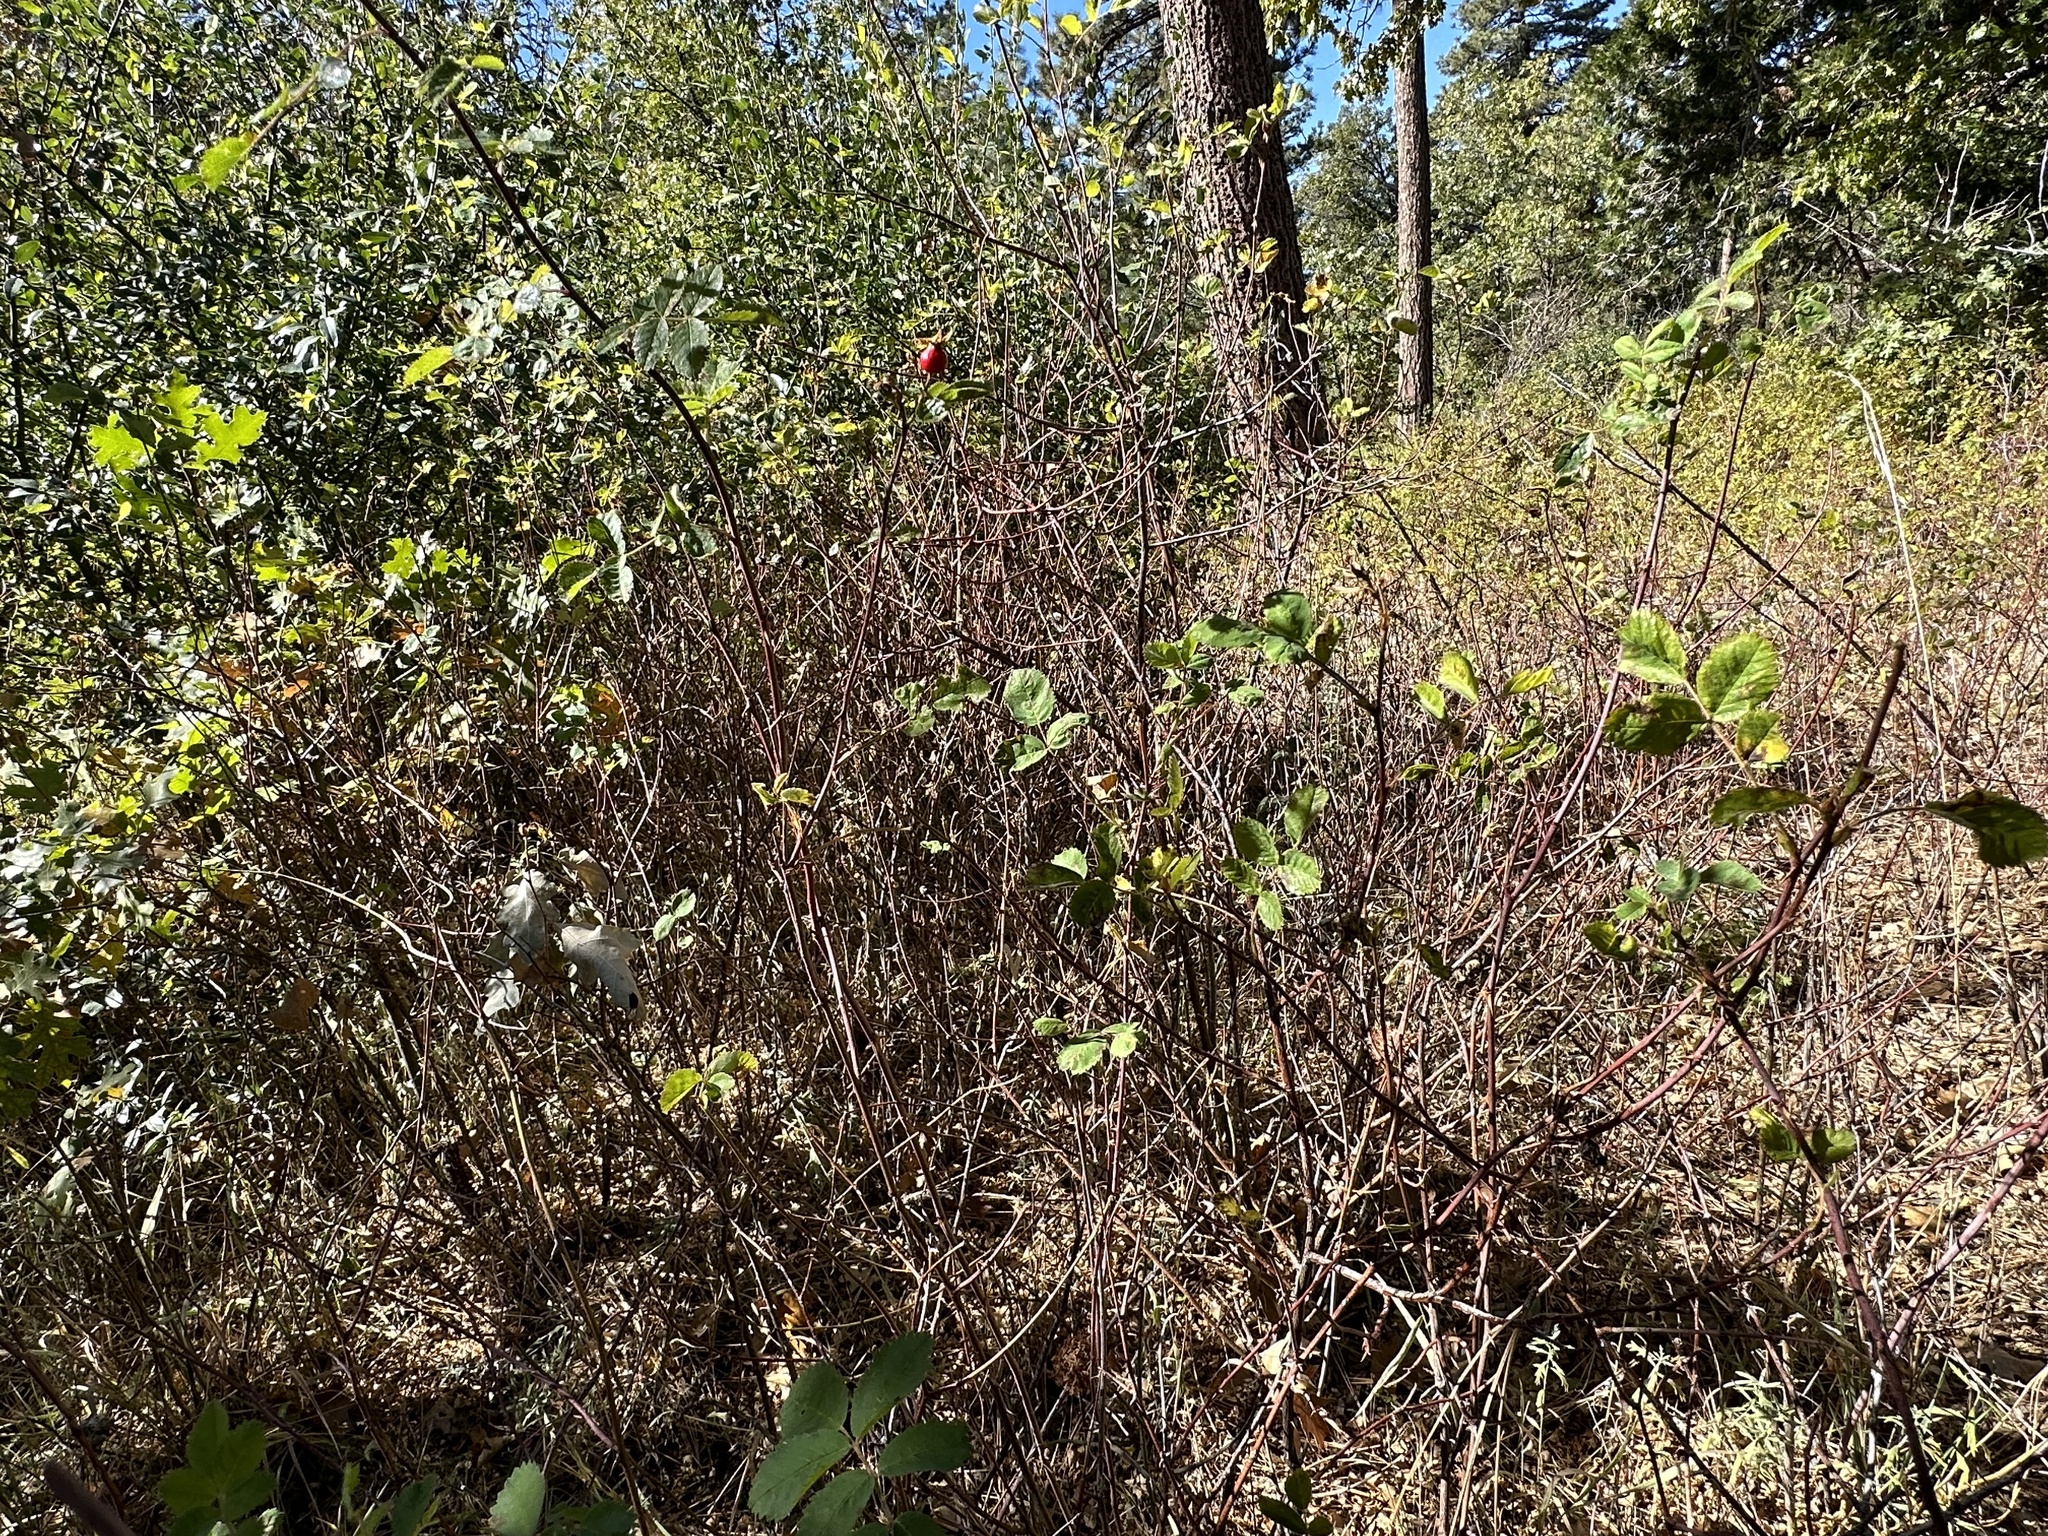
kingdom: Animalia
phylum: Arthropoda
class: Insecta
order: Hymenoptera
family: Cynipidae
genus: Diplolepis
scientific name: Diplolepis californica
